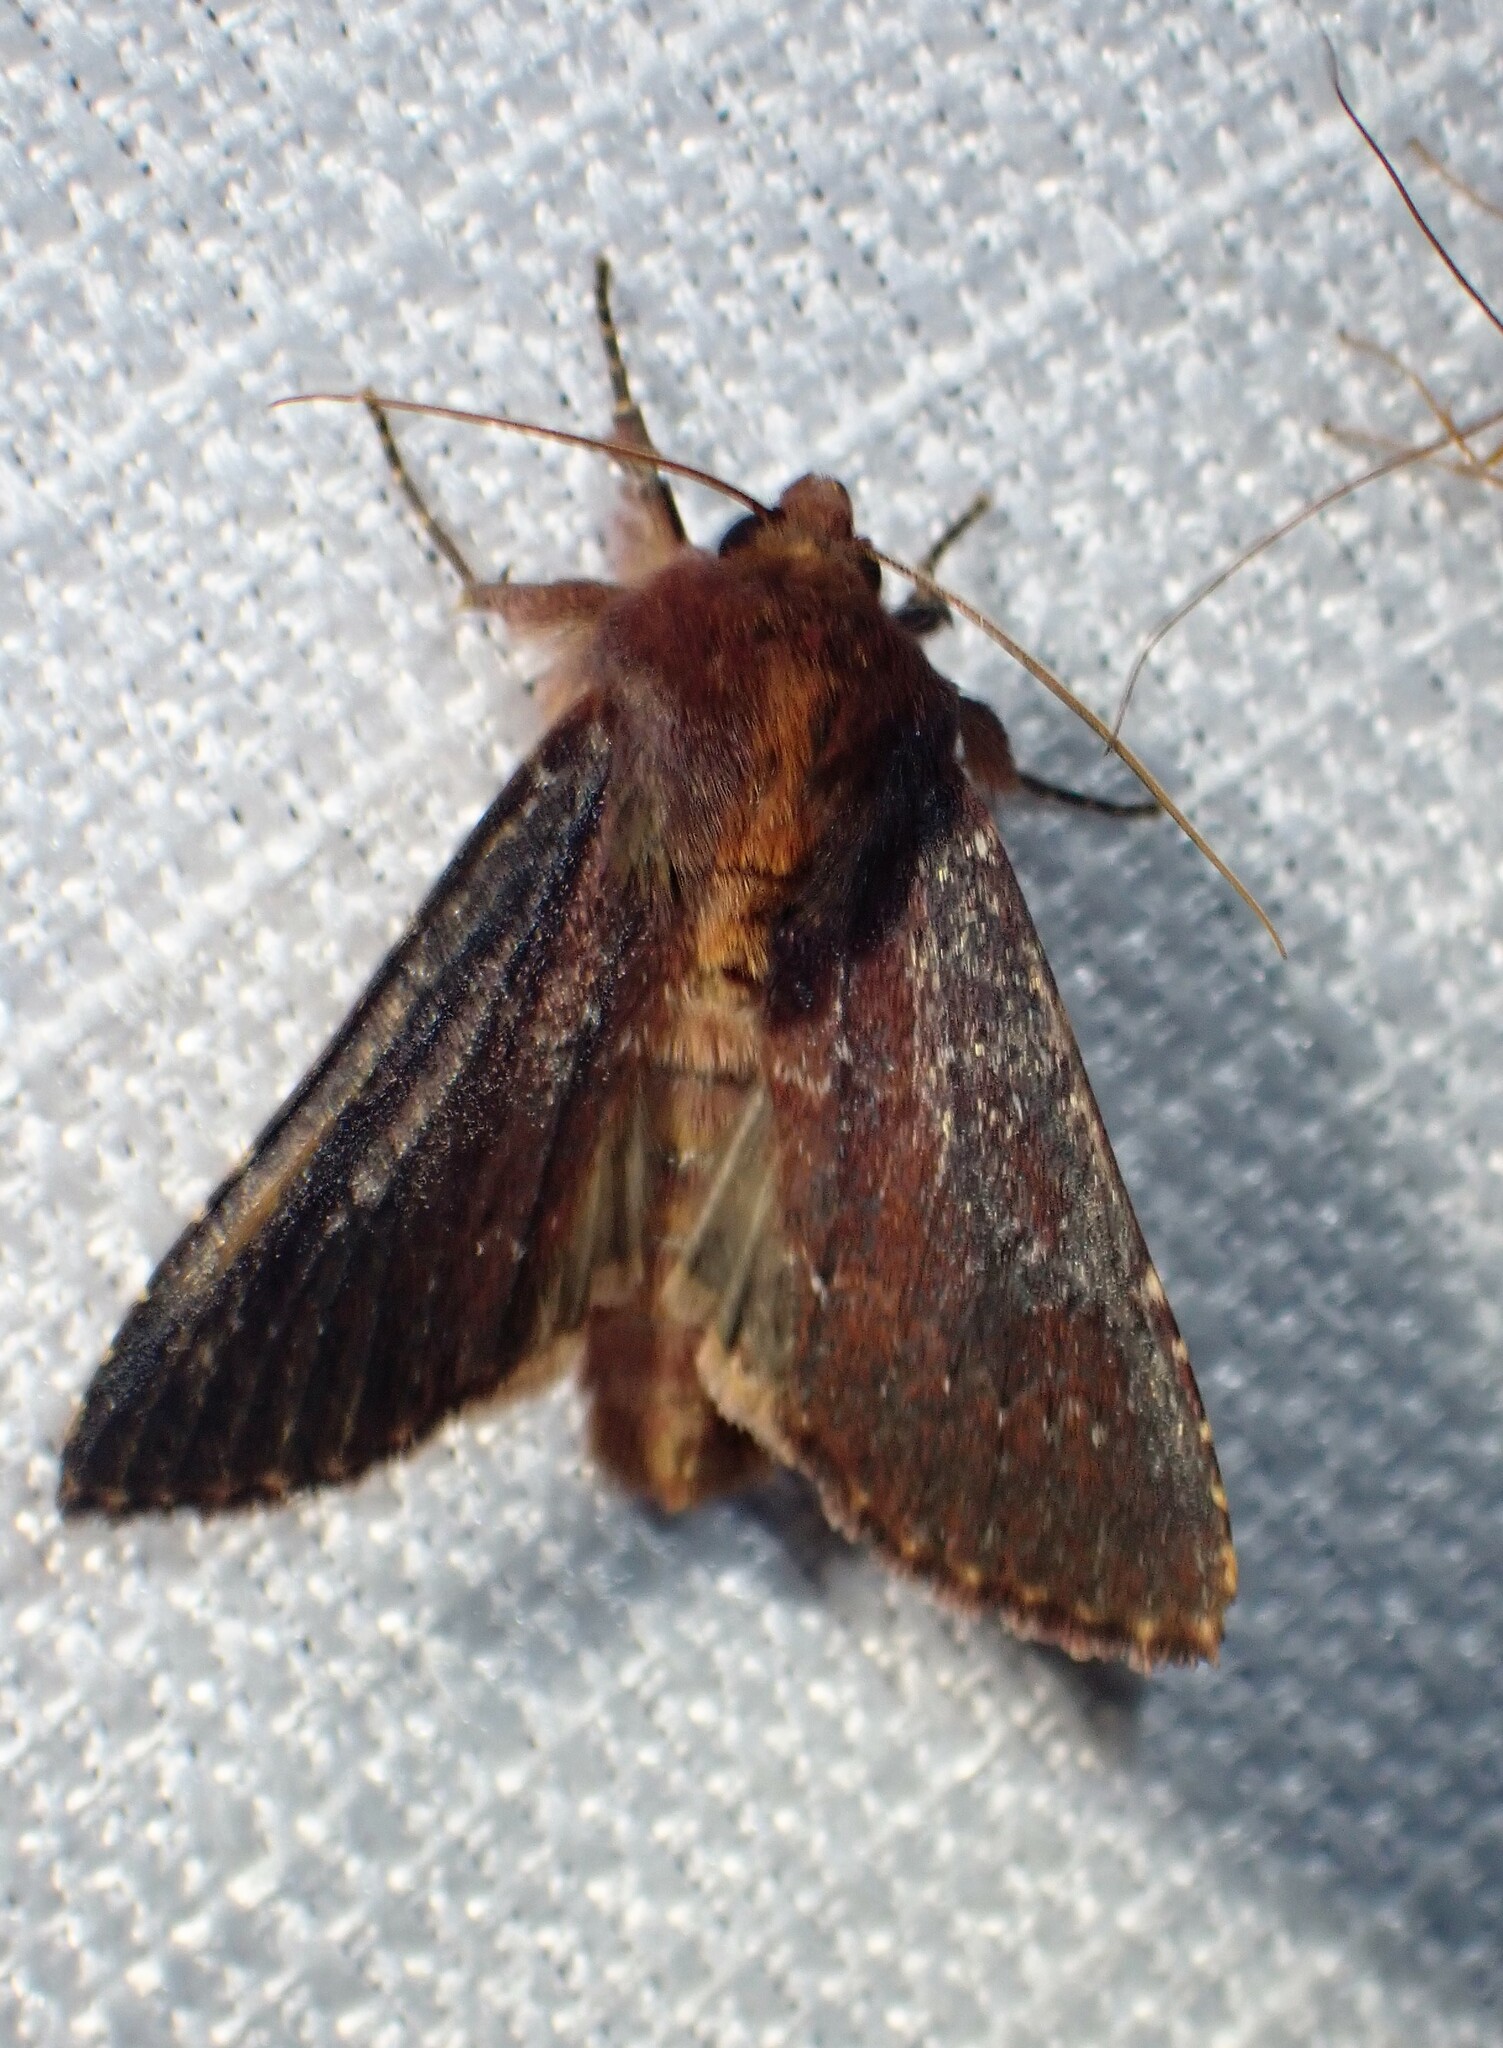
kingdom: Animalia
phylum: Arthropoda
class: Insecta
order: Lepidoptera
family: Noctuidae
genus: Sideridis
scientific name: Sideridis maryx
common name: Maroonwing moth
